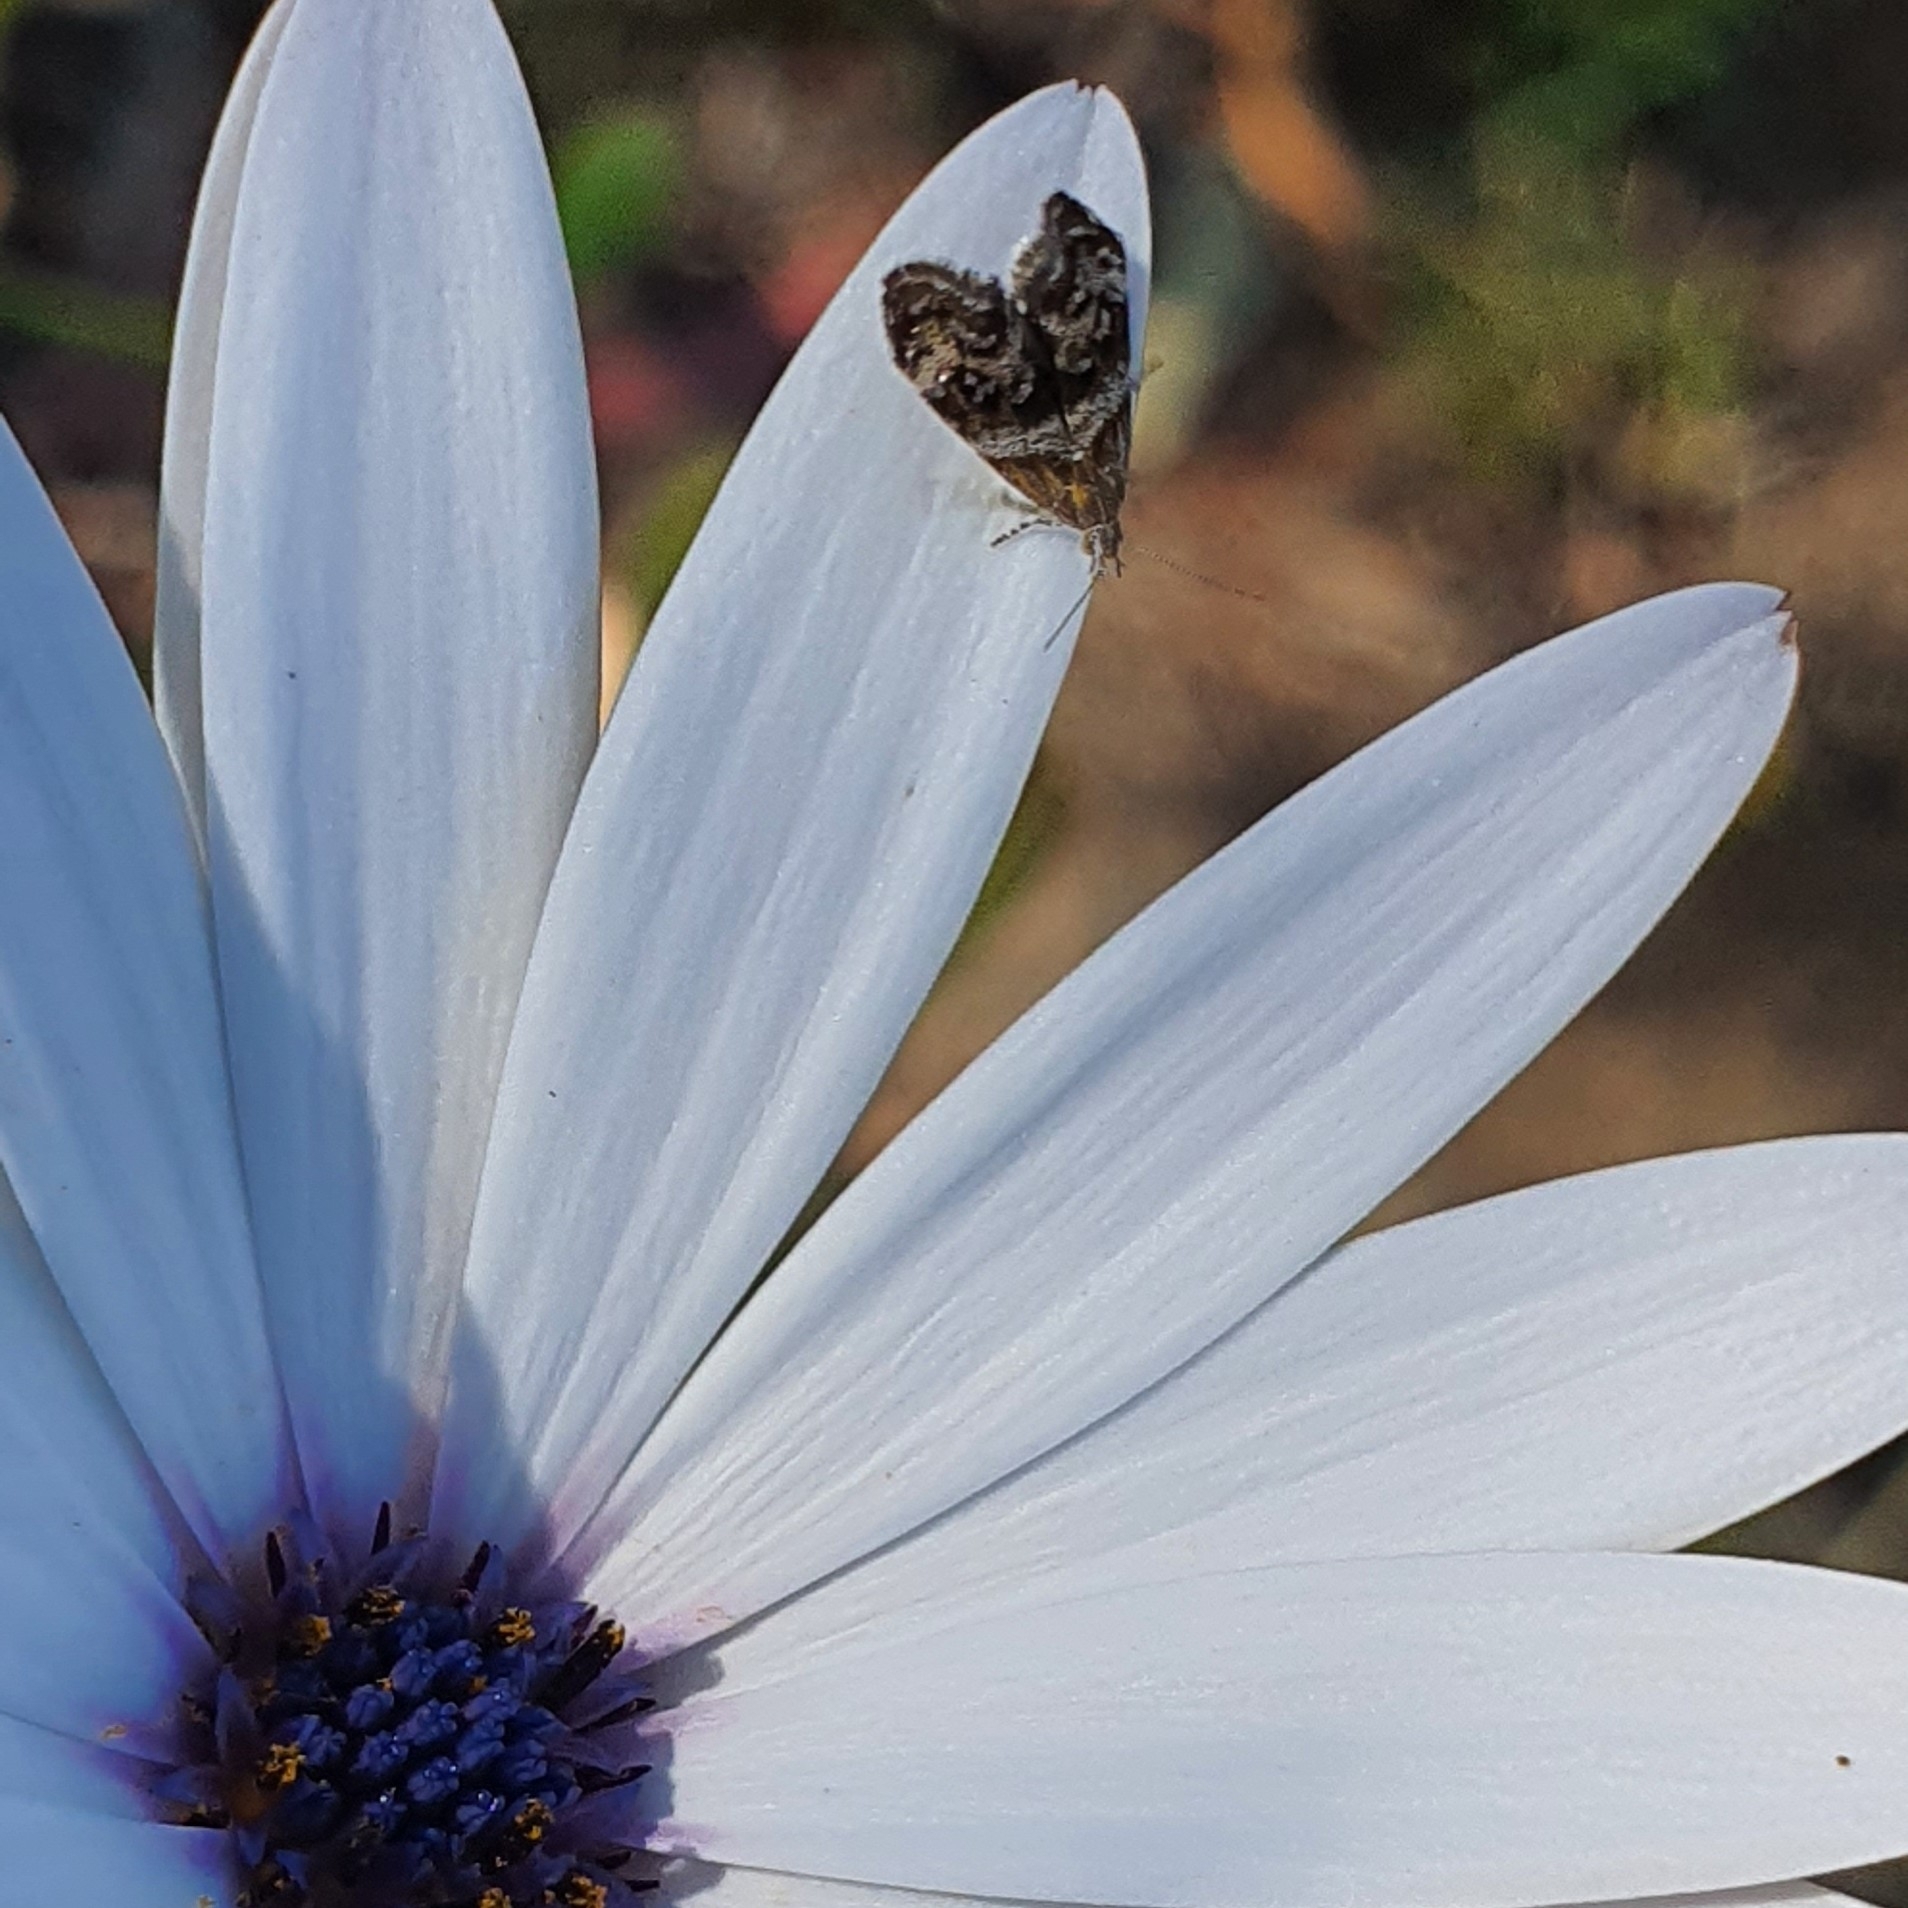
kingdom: Animalia
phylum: Arthropoda
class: Insecta
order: Lepidoptera
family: Choreutidae
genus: Tebenna
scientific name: Tebenna micalis
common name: Vagrant twitcher
